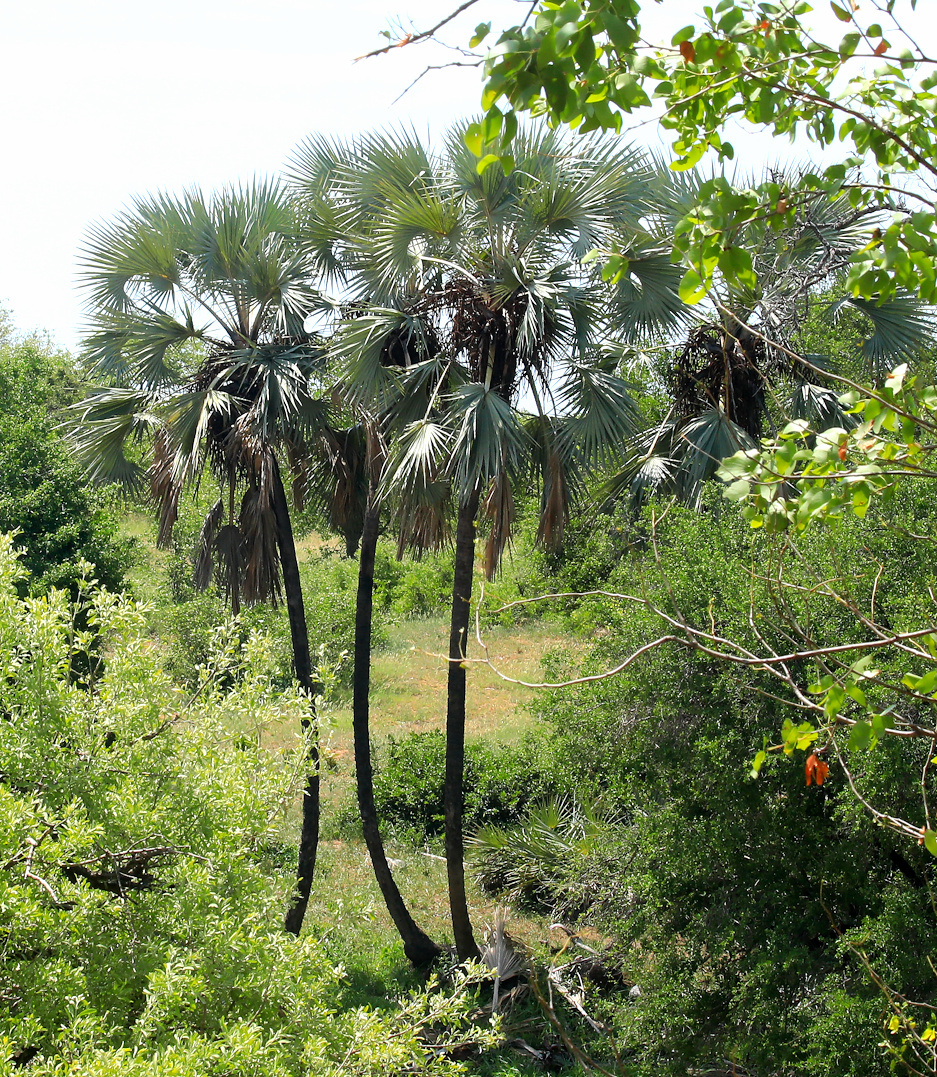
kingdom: Plantae
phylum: Tracheophyta
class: Liliopsida
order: Arecales
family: Arecaceae
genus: Hyphaene
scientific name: Hyphaene petersiana
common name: African ivory nut palm
